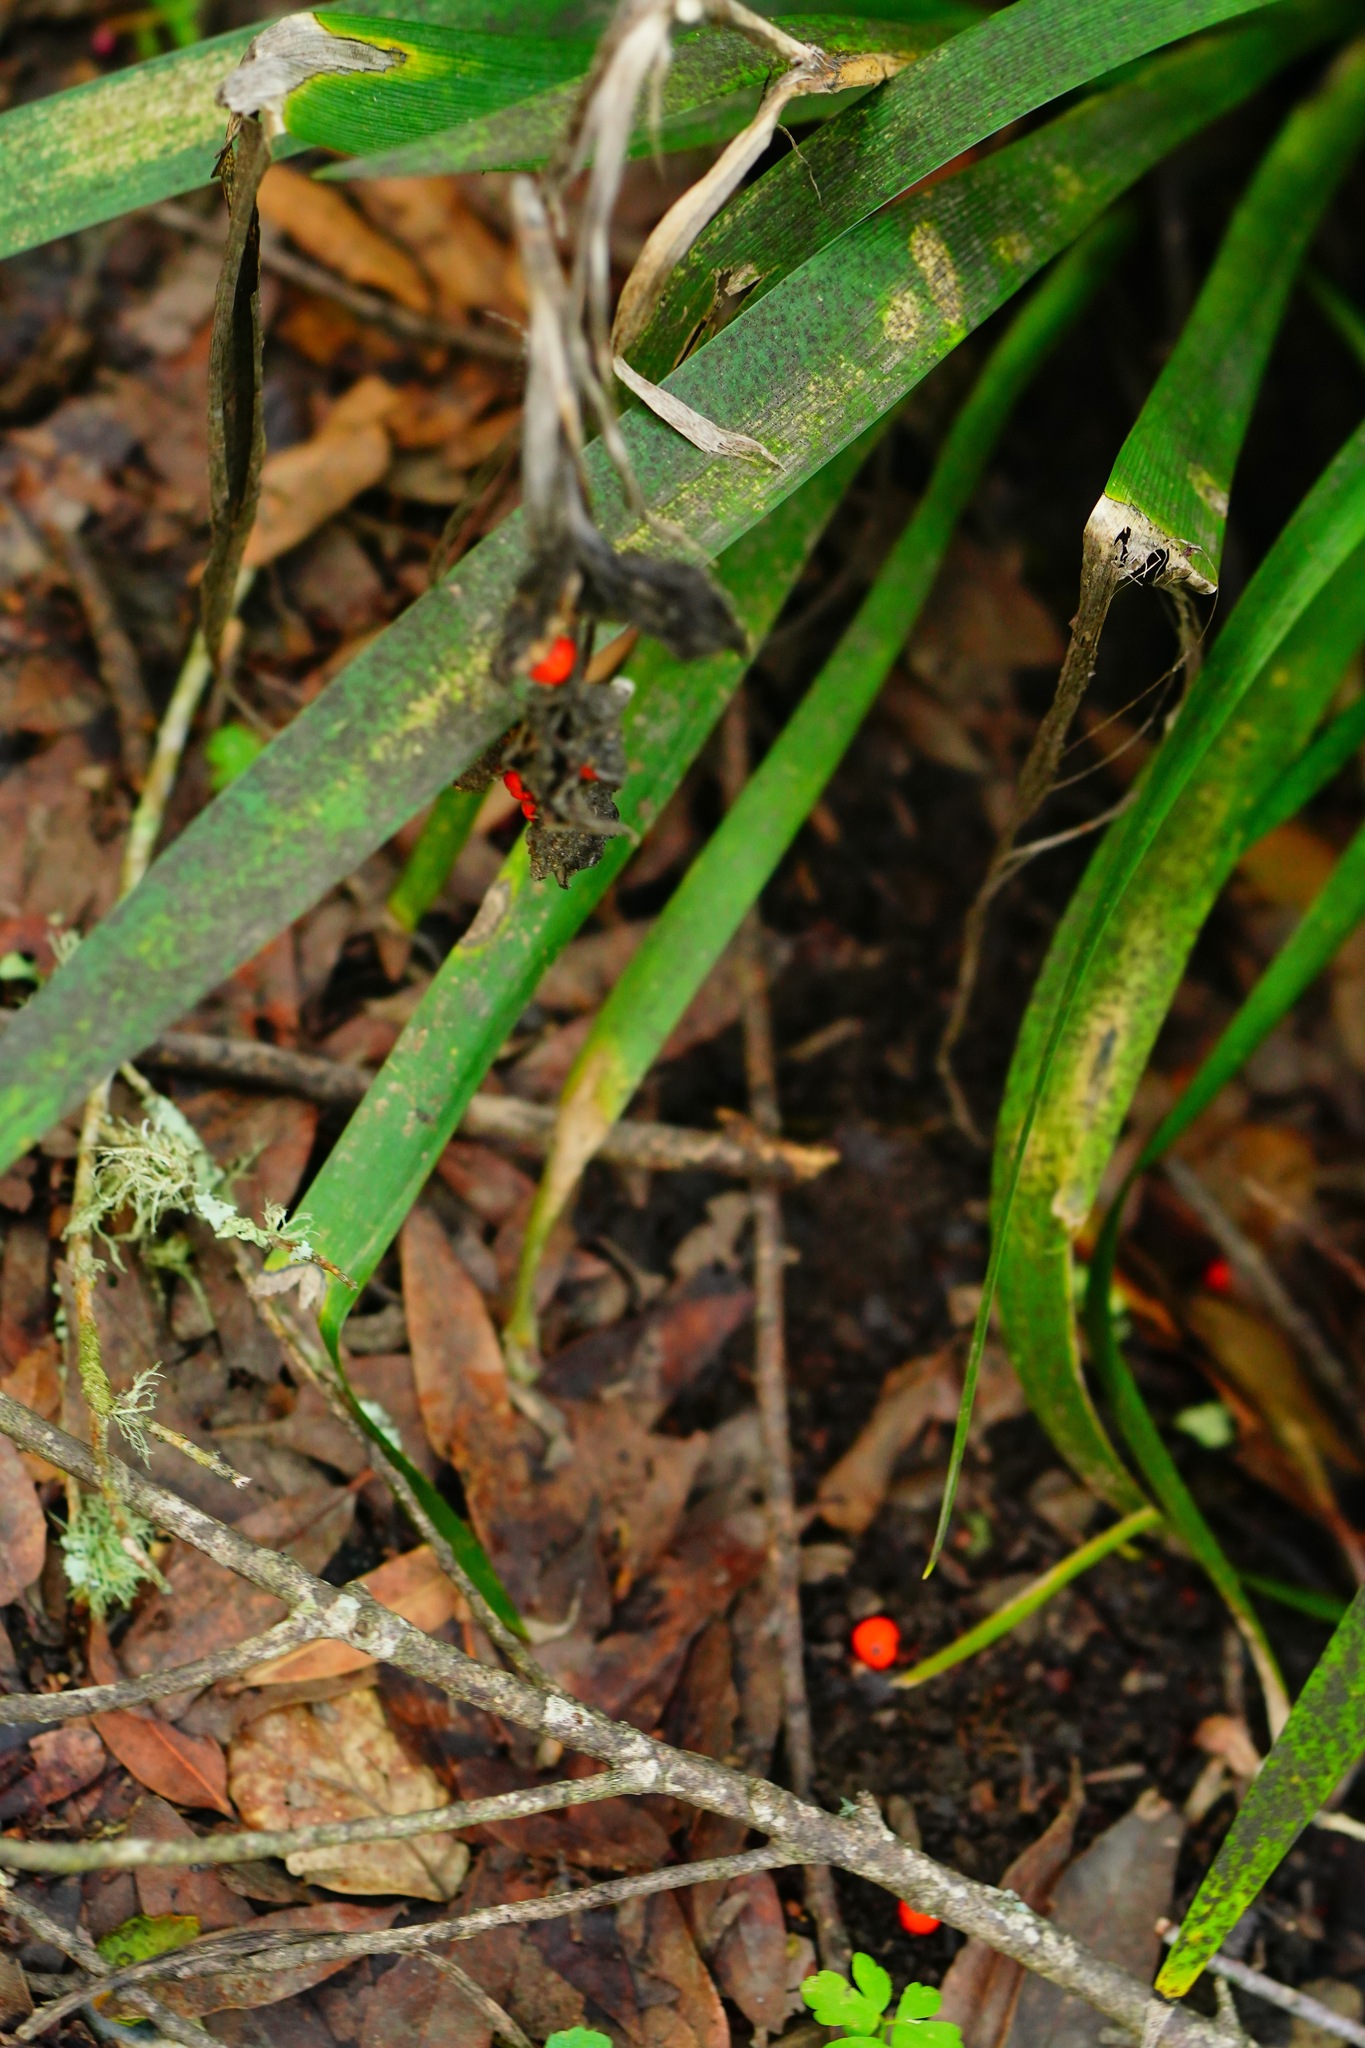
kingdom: Plantae
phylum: Tracheophyta
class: Liliopsida
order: Asparagales
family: Iridaceae
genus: Iris
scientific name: Iris foetidissima
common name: Stinking iris
